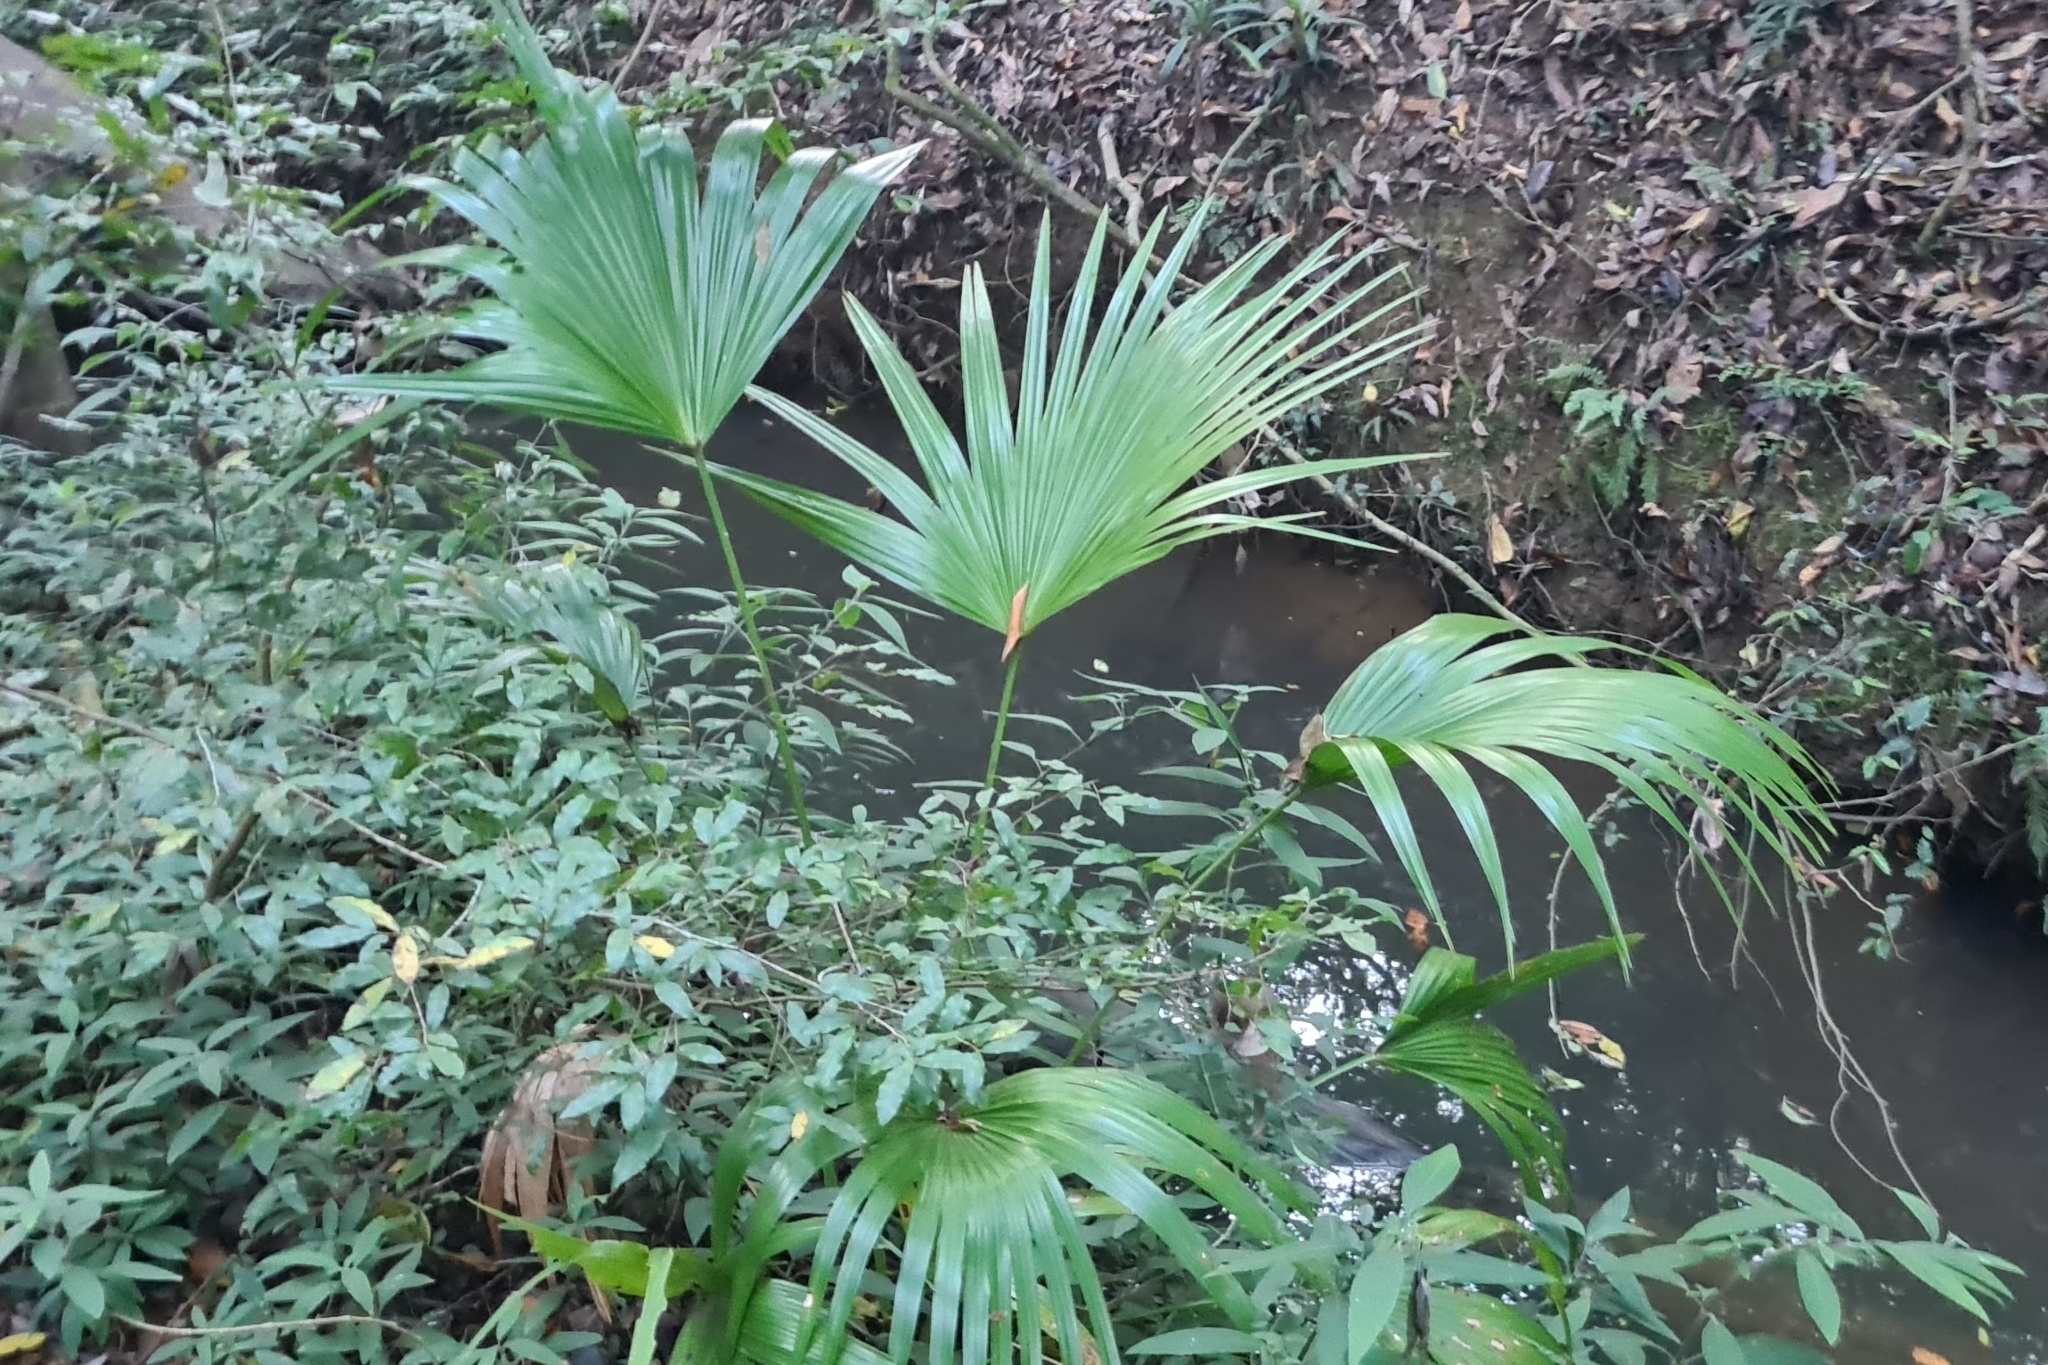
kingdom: Plantae
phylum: Tracheophyta
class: Liliopsida
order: Arecales
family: Arecaceae
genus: Livistona
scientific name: Livistona australis
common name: Cabbage fan palm
